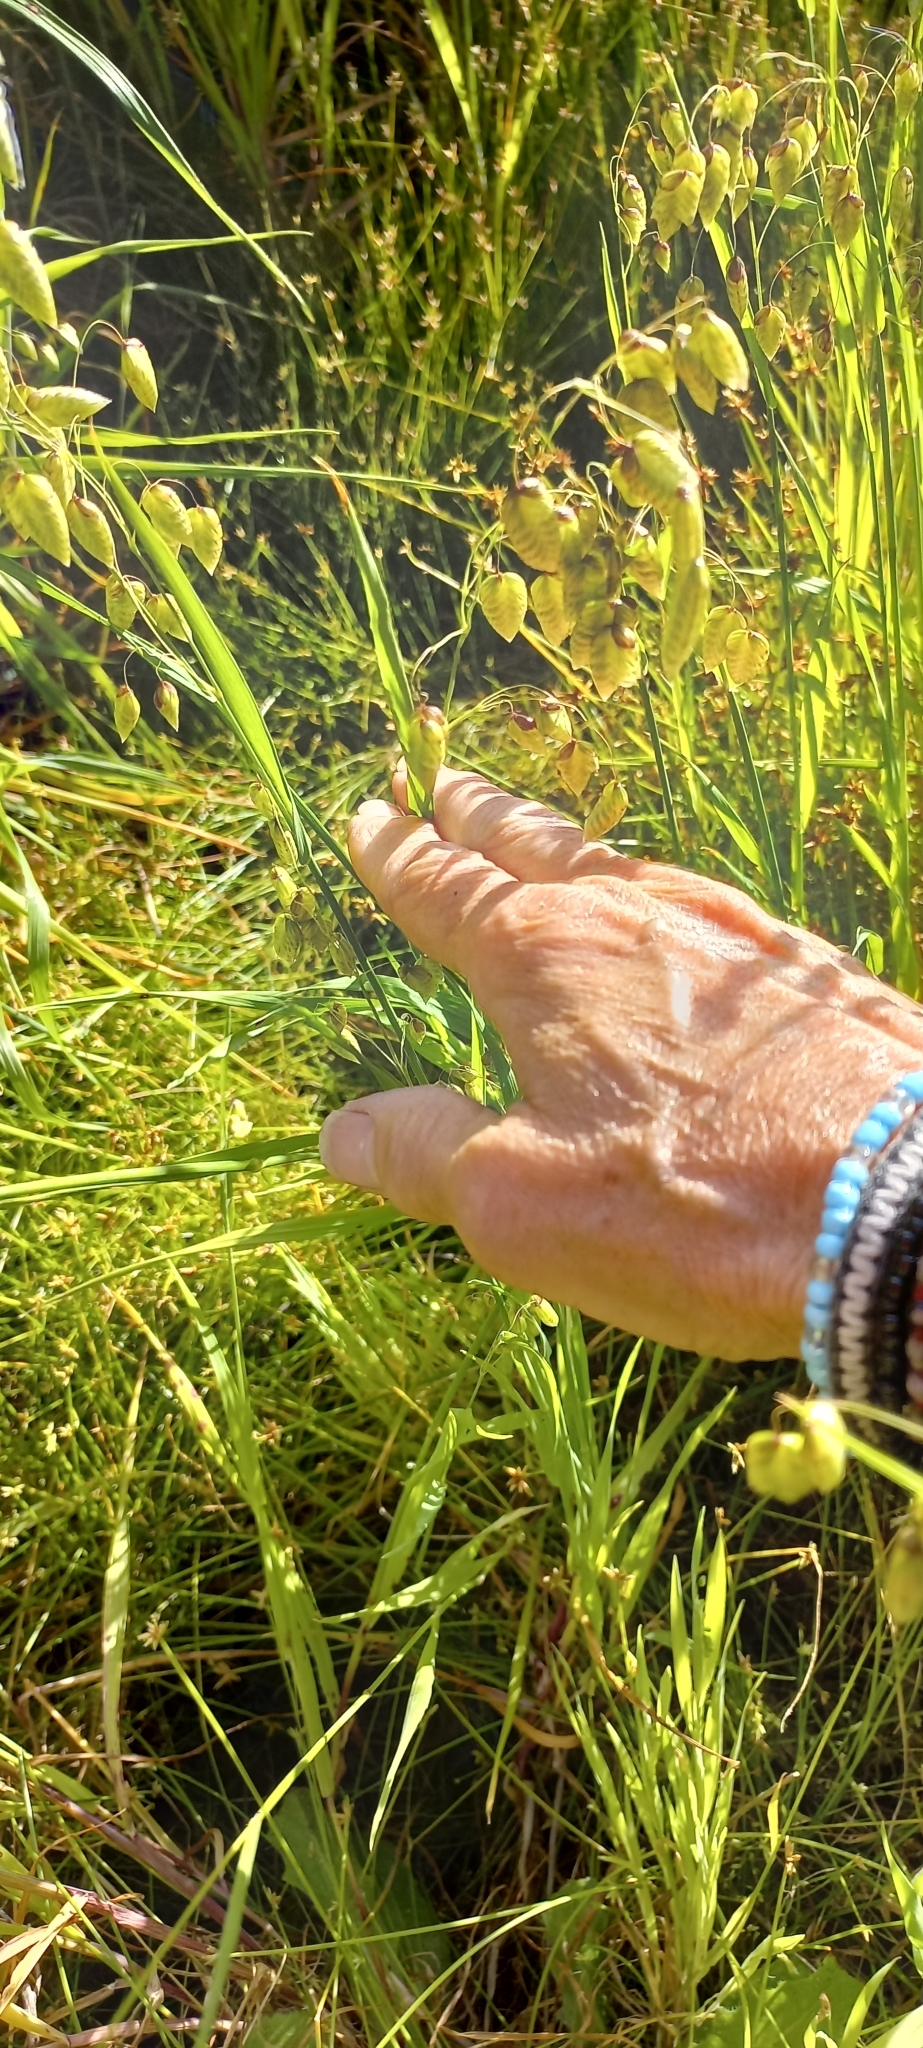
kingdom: Plantae
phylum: Tracheophyta
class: Liliopsida
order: Poales
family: Poaceae
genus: Briza
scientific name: Briza maxima
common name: Big quakinggrass
